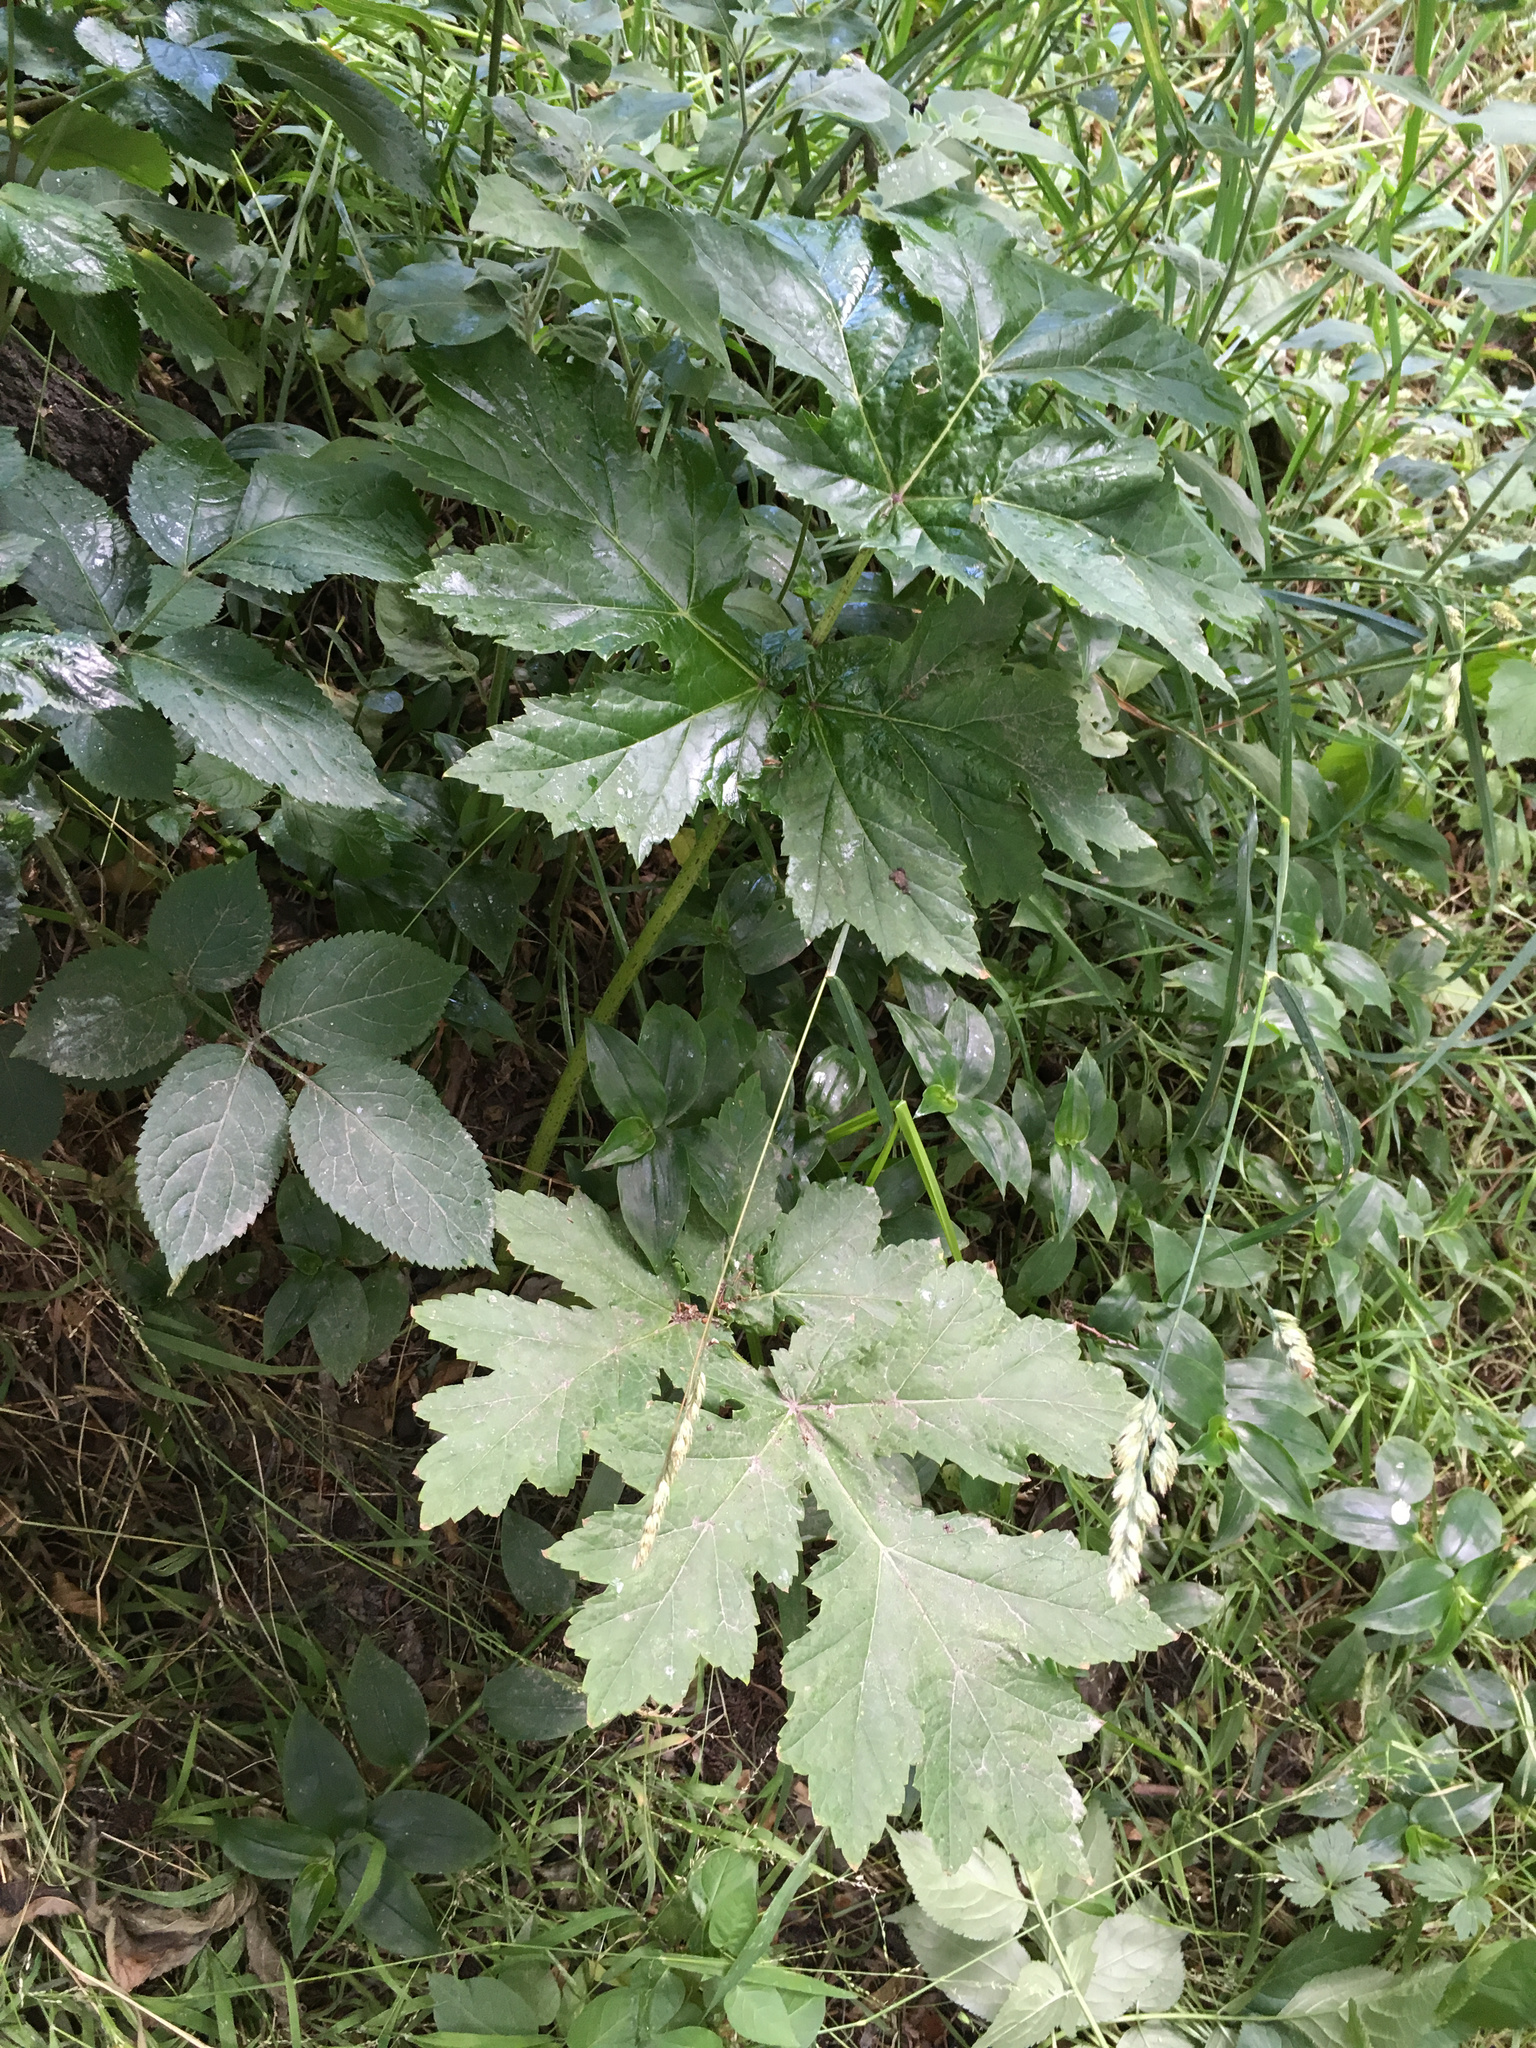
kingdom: Plantae
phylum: Tracheophyta
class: Magnoliopsida
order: Apiales
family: Apiaceae
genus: Heracleum
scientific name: Heracleum mantegazzianum
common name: Giant hogweed
